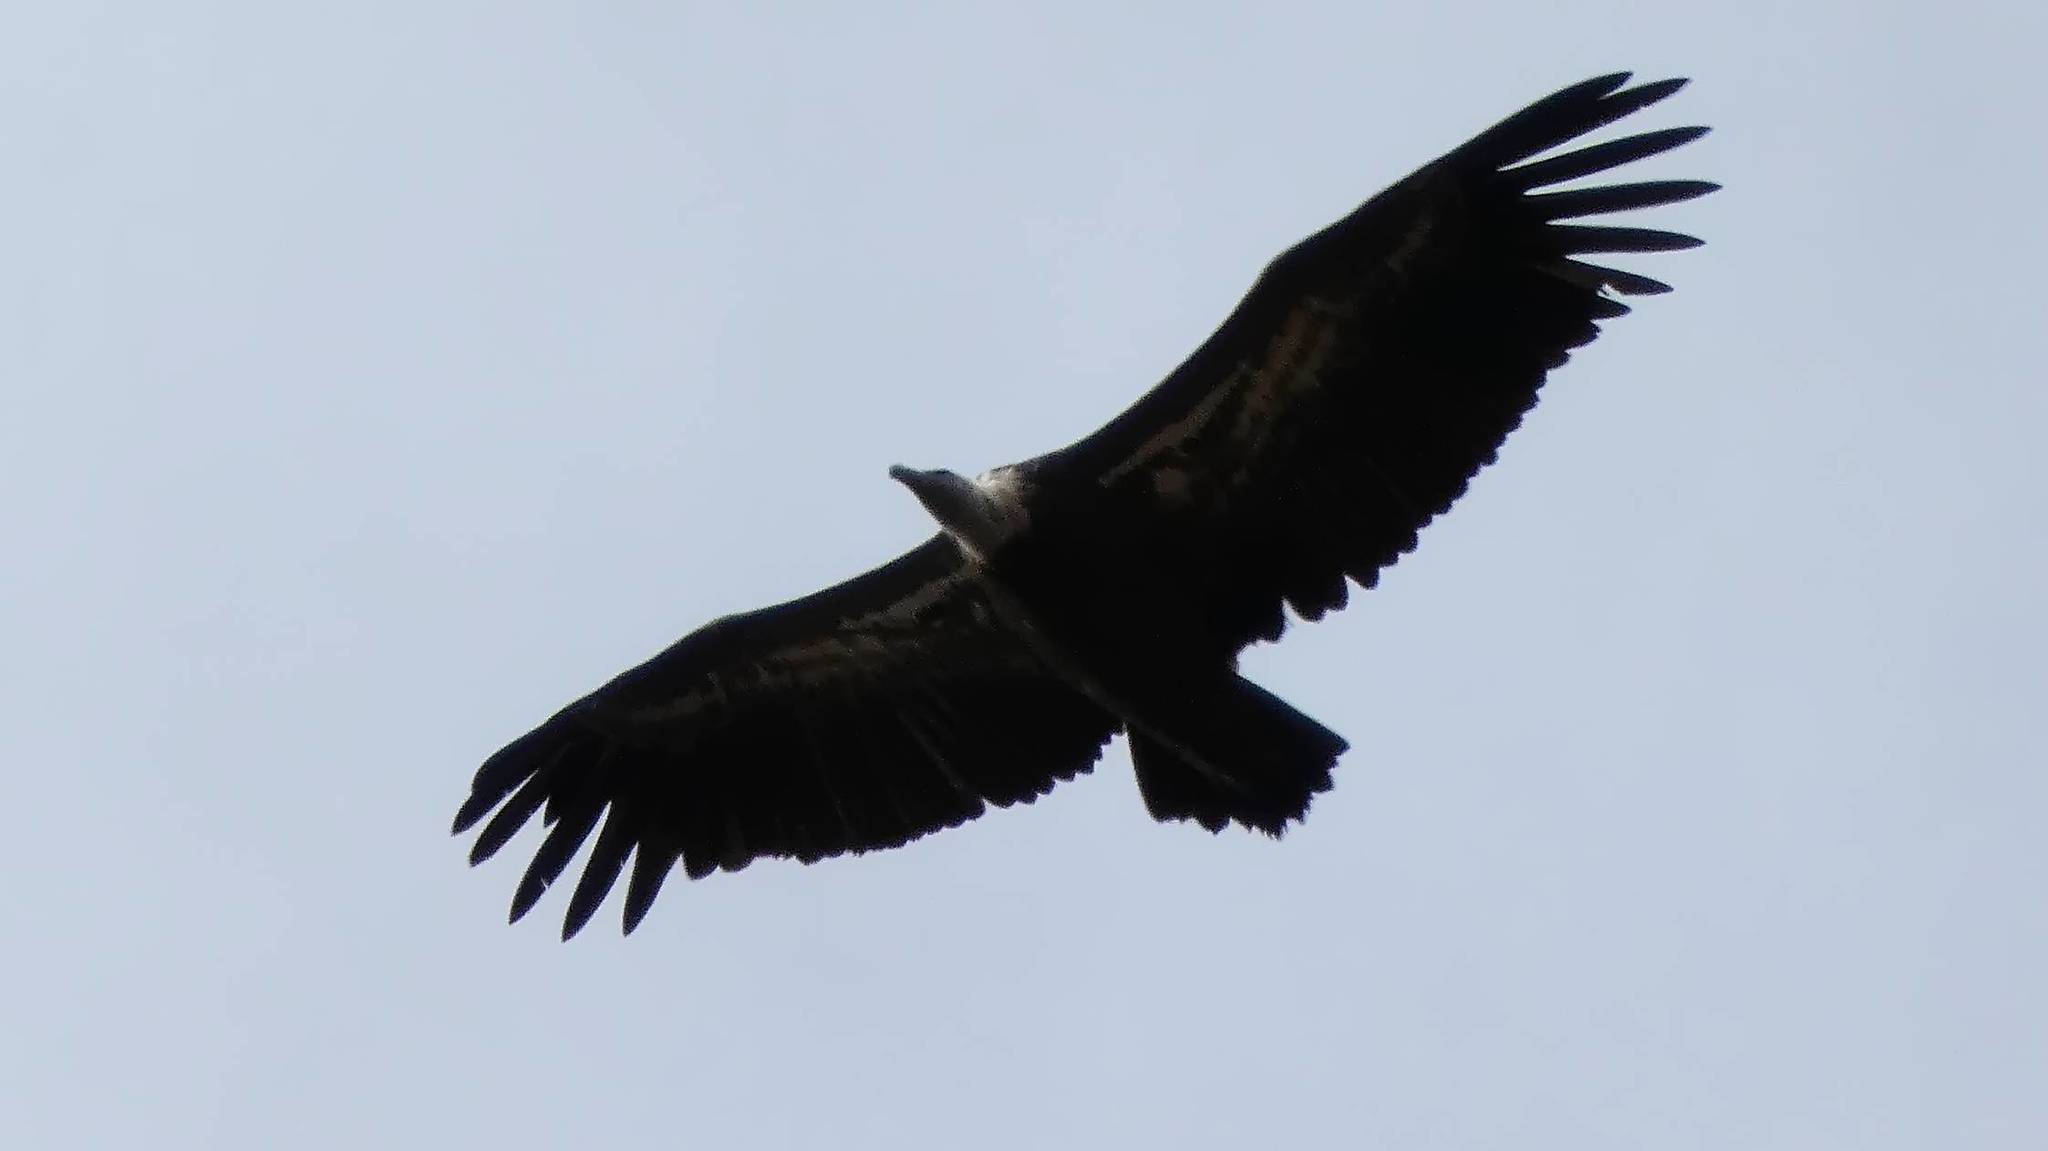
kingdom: Animalia
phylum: Chordata
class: Aves
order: Accipitriformes
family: Accipitridae
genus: Gyps
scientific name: Gyps fulvus
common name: Griffon vulture
